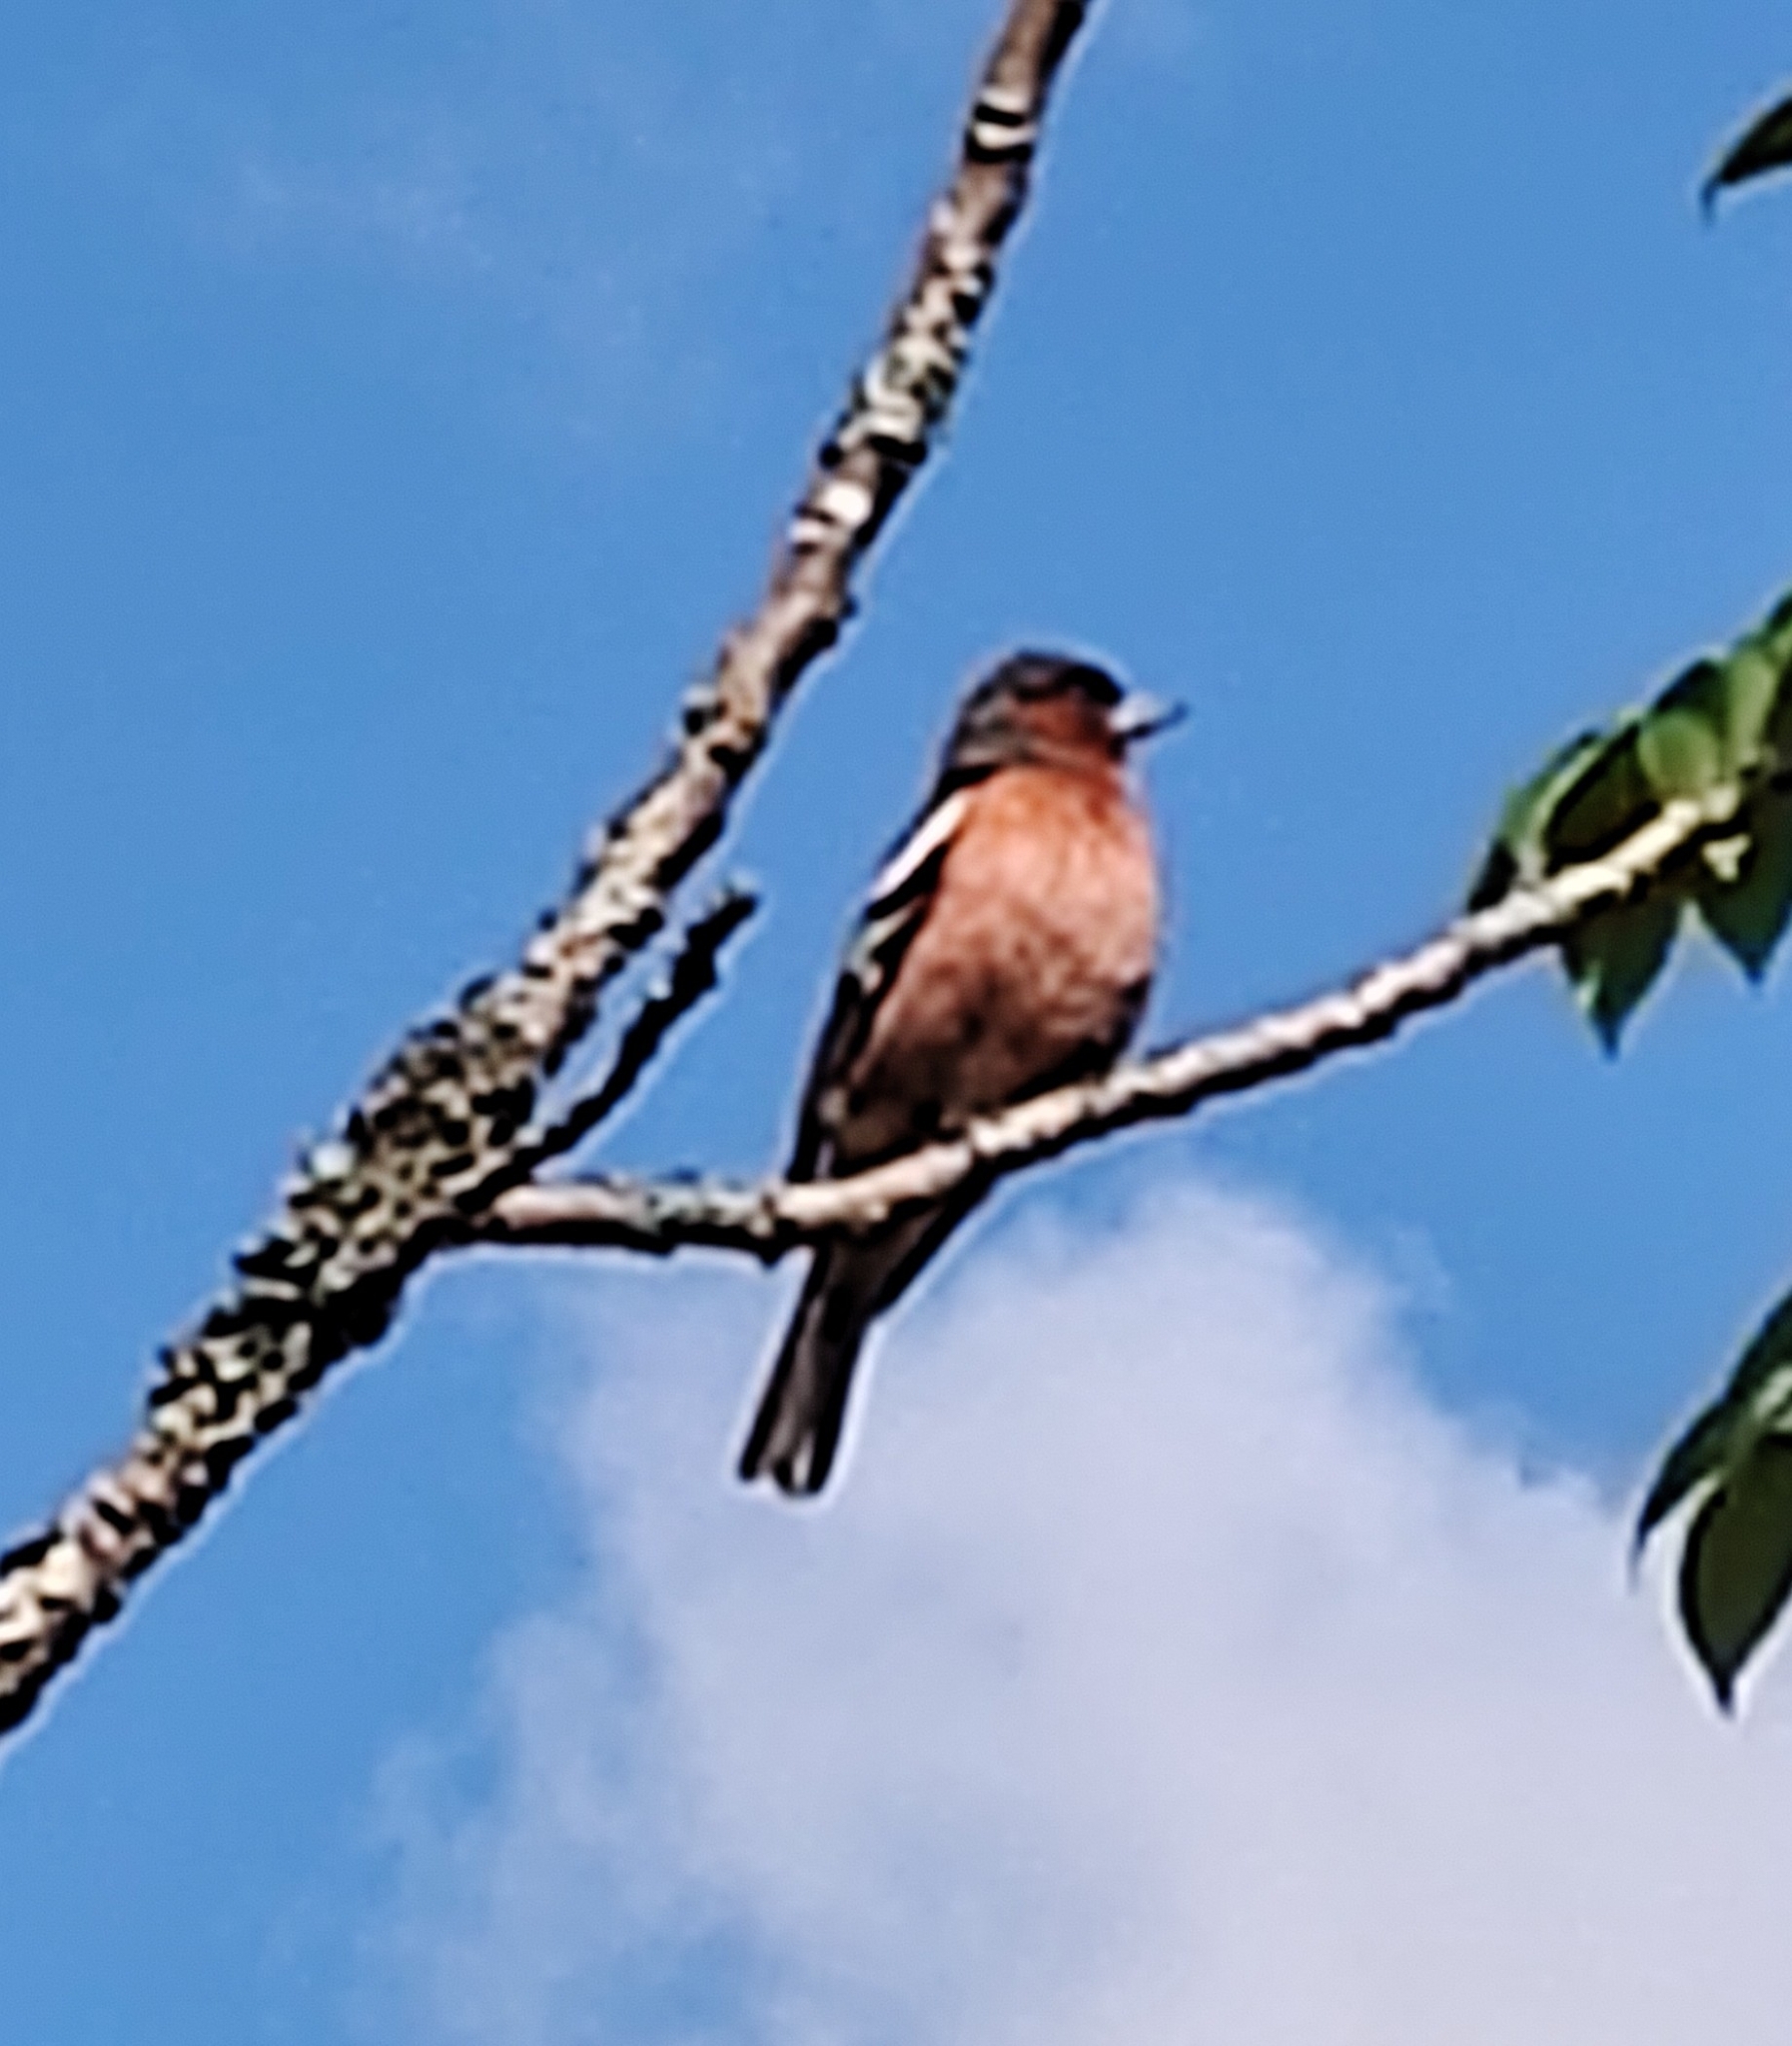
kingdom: Animalia
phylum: Chordata
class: Aves
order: Passeriformes
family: Fringillidae
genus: Fringilla
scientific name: Fringilla coelebs
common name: Common chaffinch
